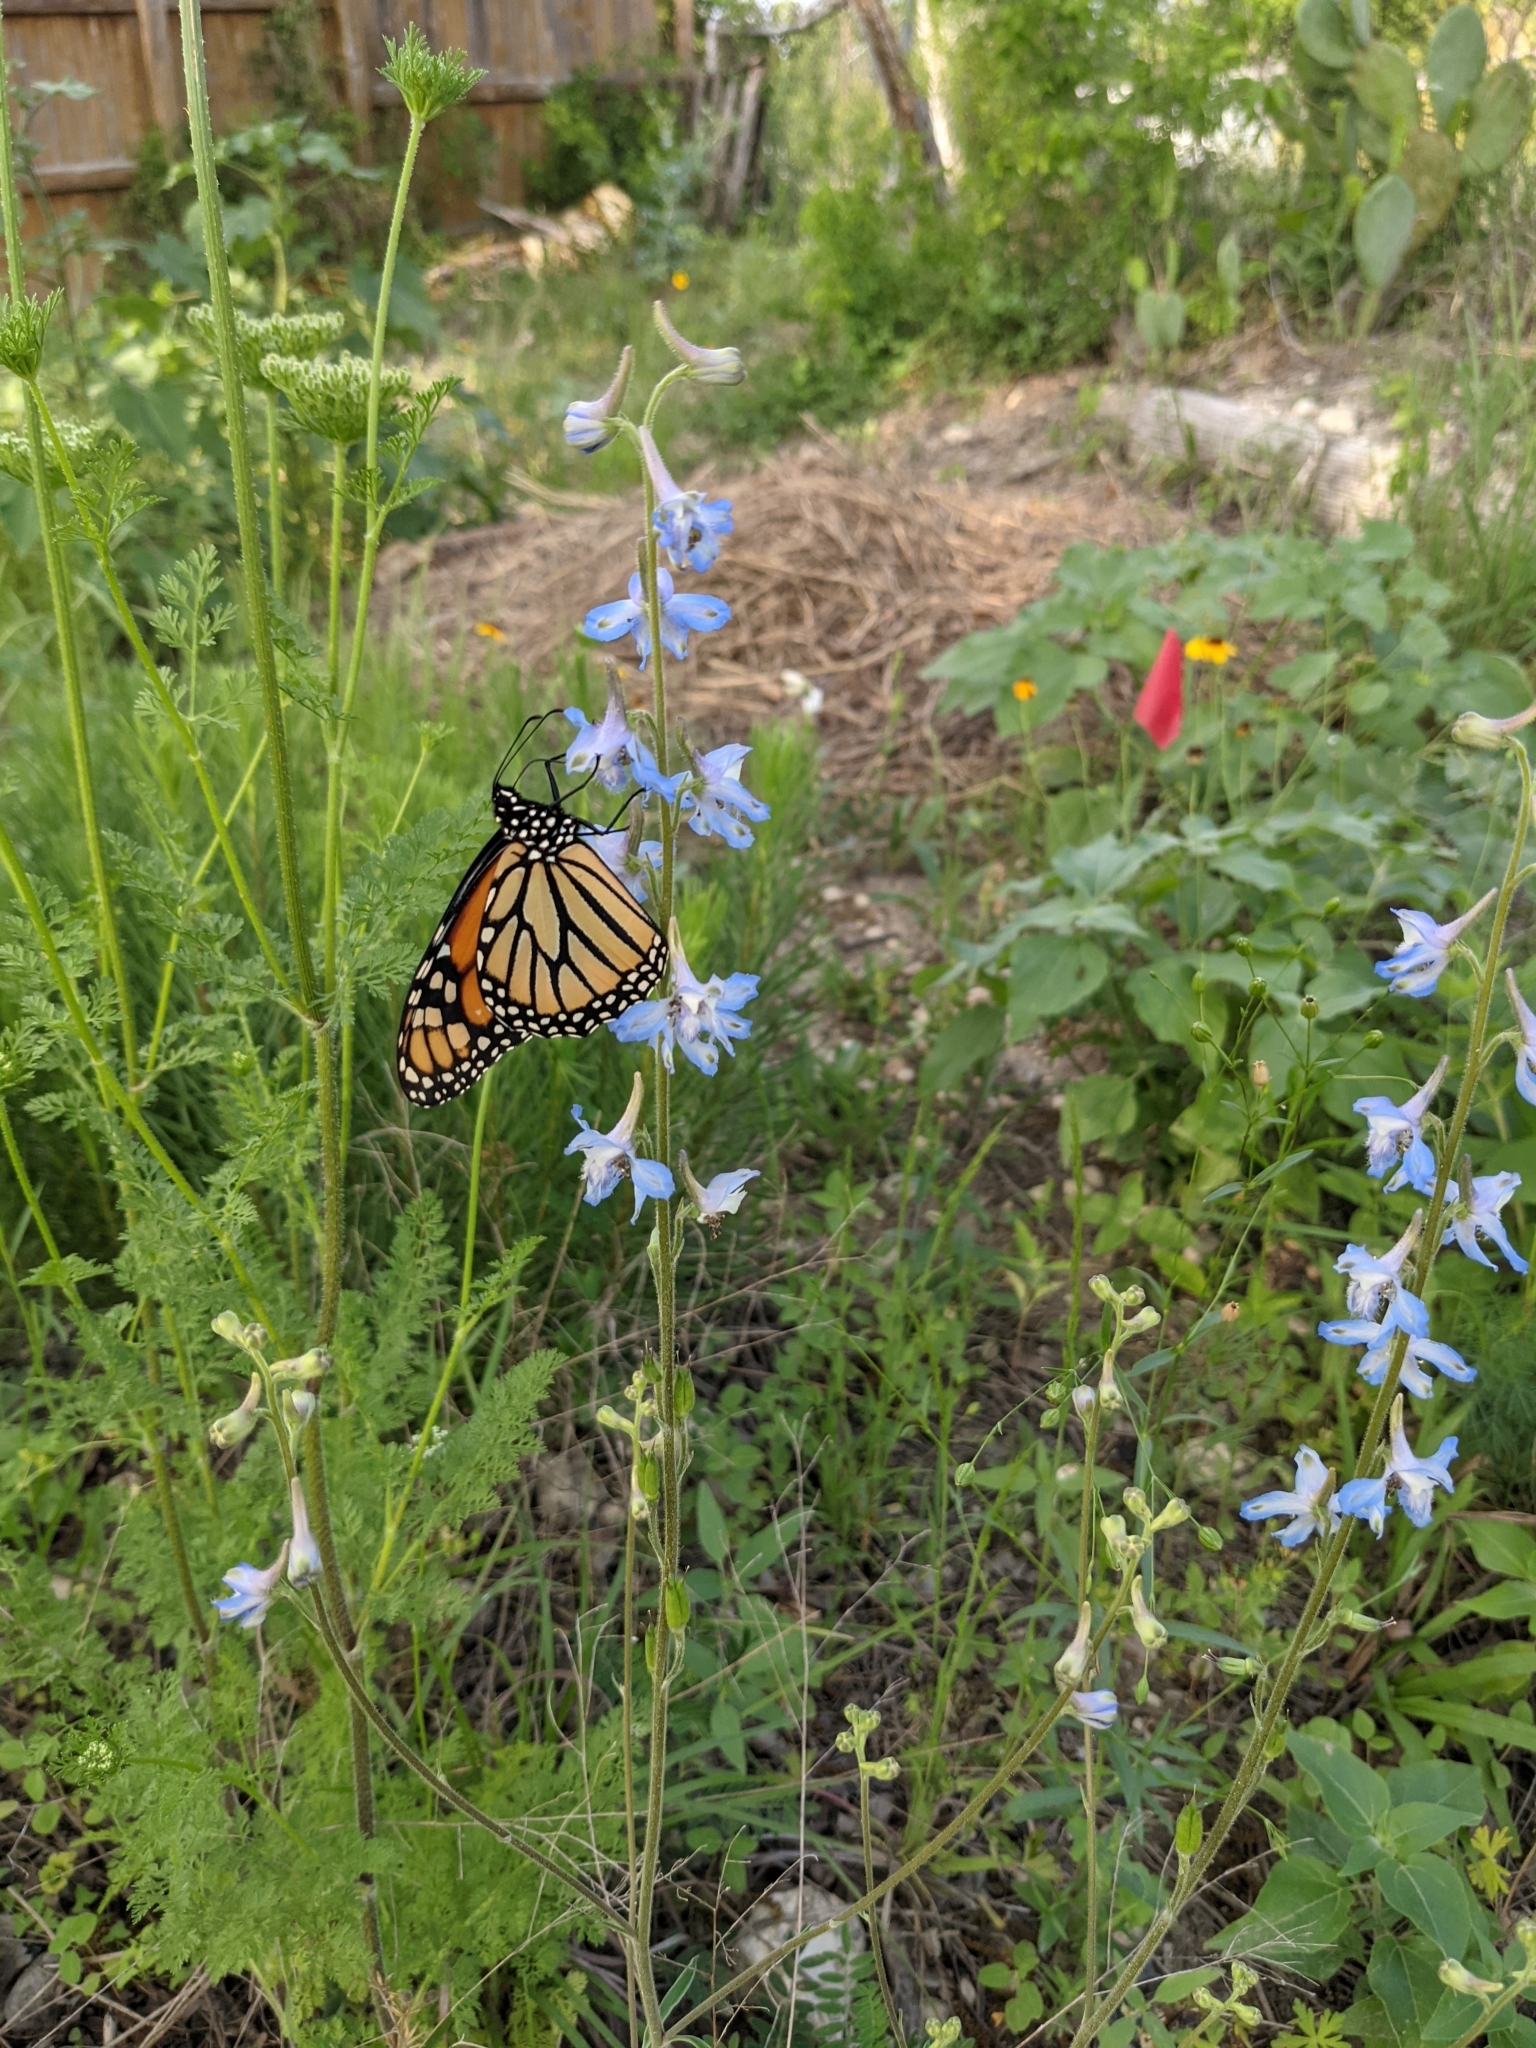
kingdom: Animalia
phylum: Arthropoda
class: Insecta
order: Lepidoptera
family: Nymphalidae
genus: Danaus
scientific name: Danaus plexippus
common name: Monarch
